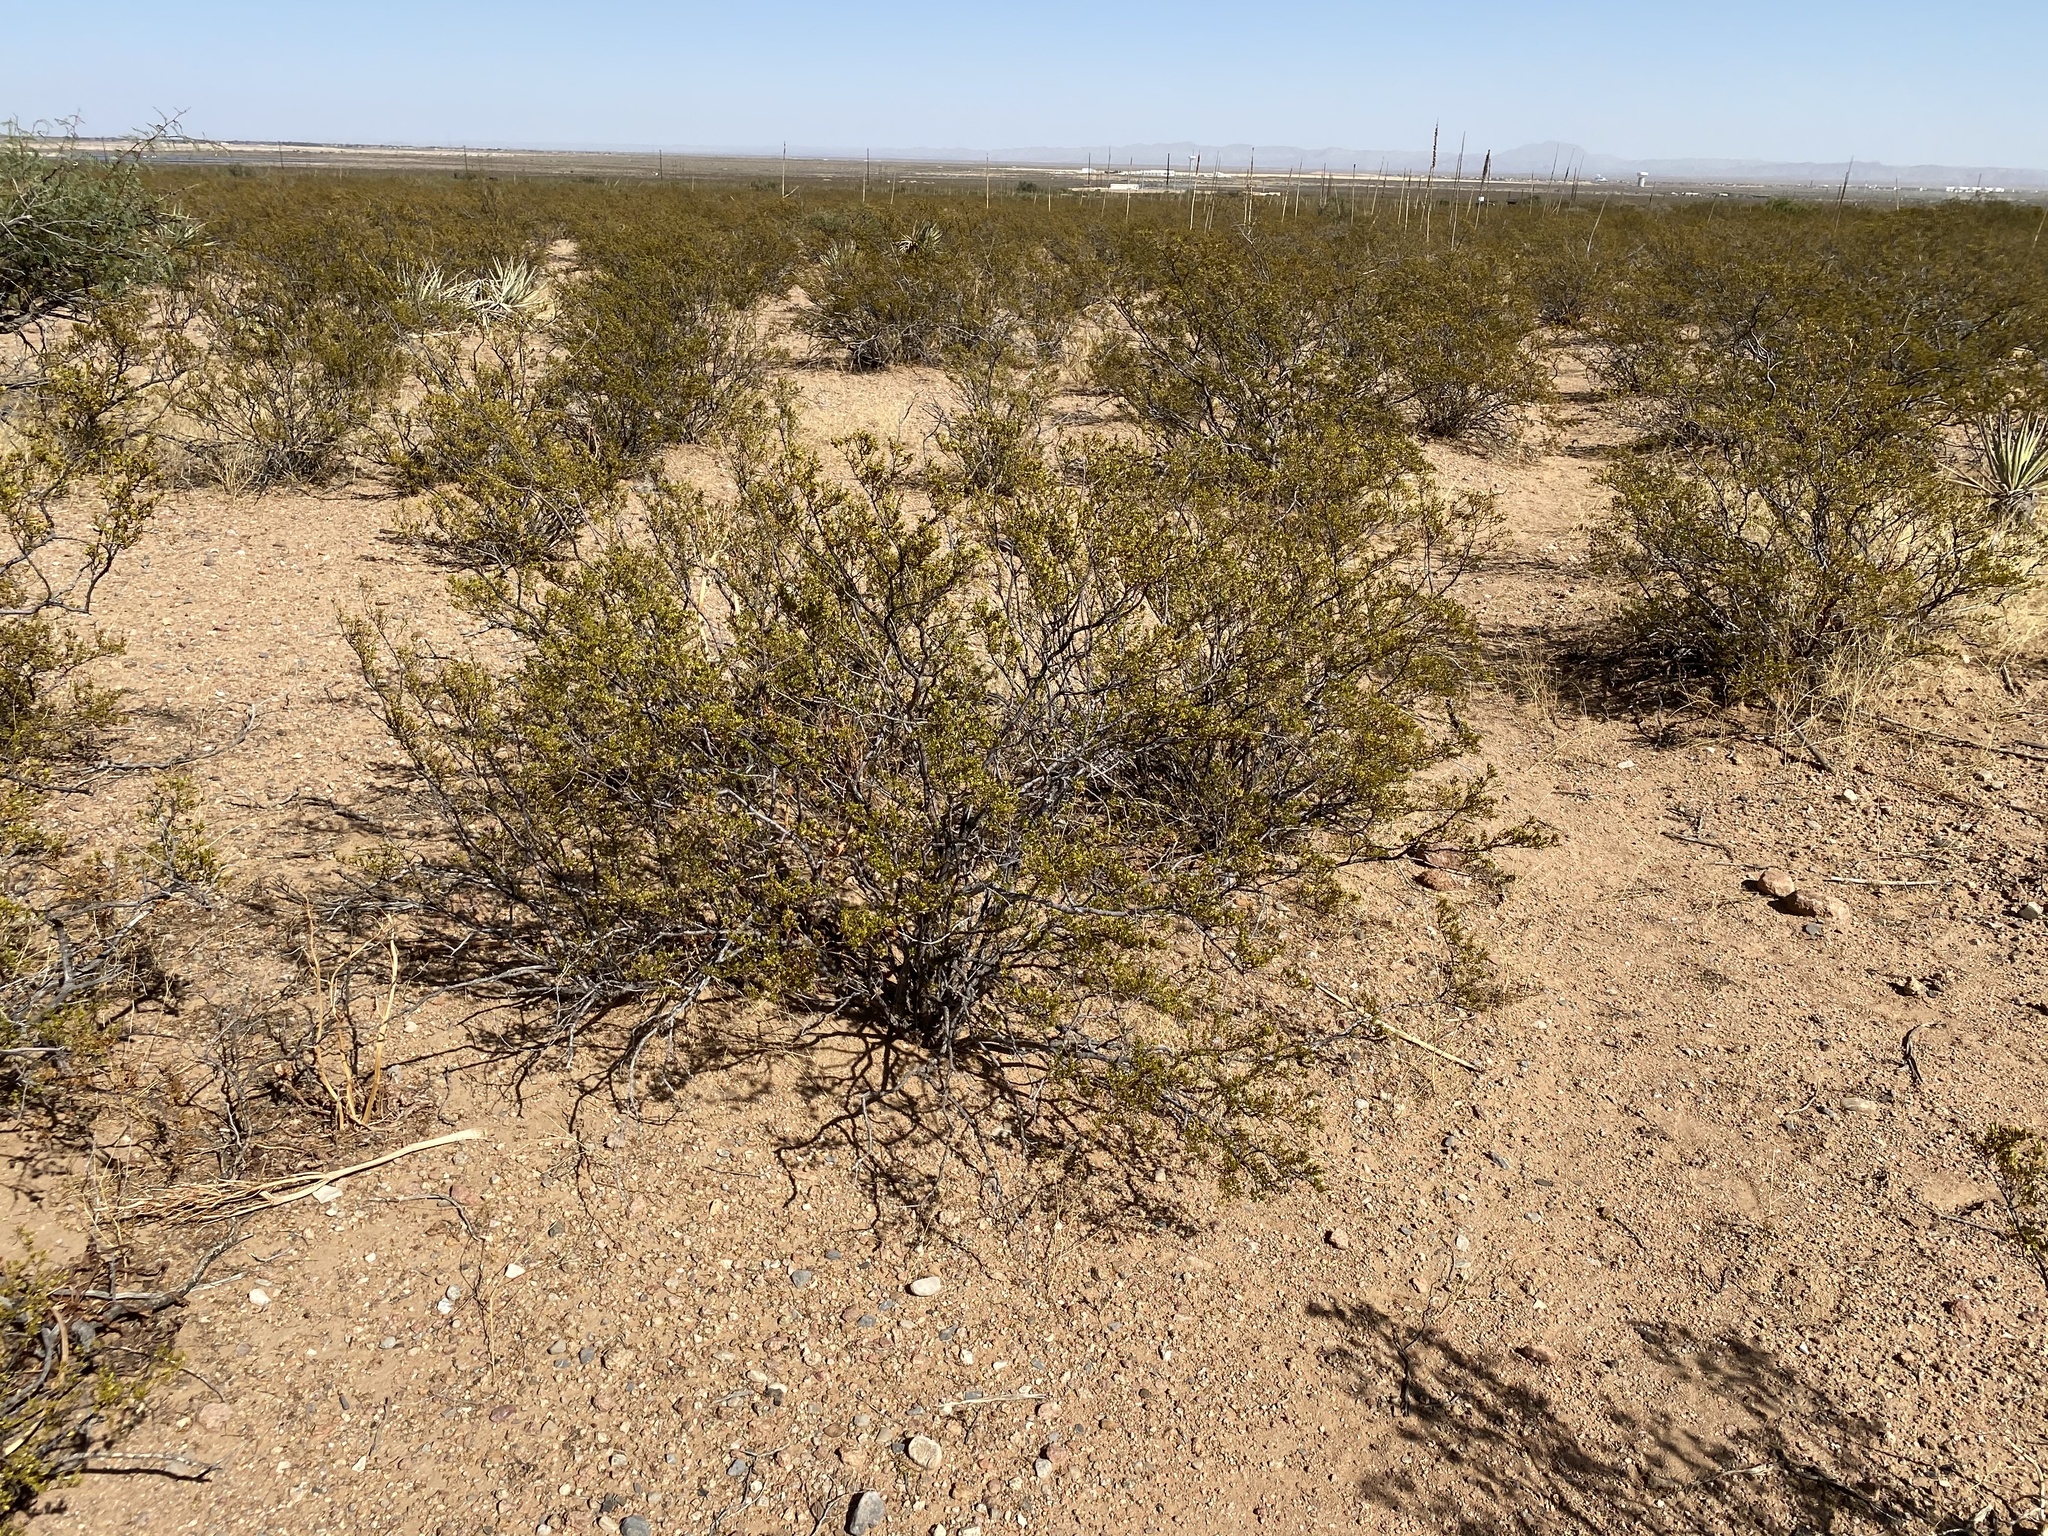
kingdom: Plantae
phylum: Tracheophyta
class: Magnoliopsida
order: Zygophyllales
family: Zygophyllaceae
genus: Larrea
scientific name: Larrea tridentata
